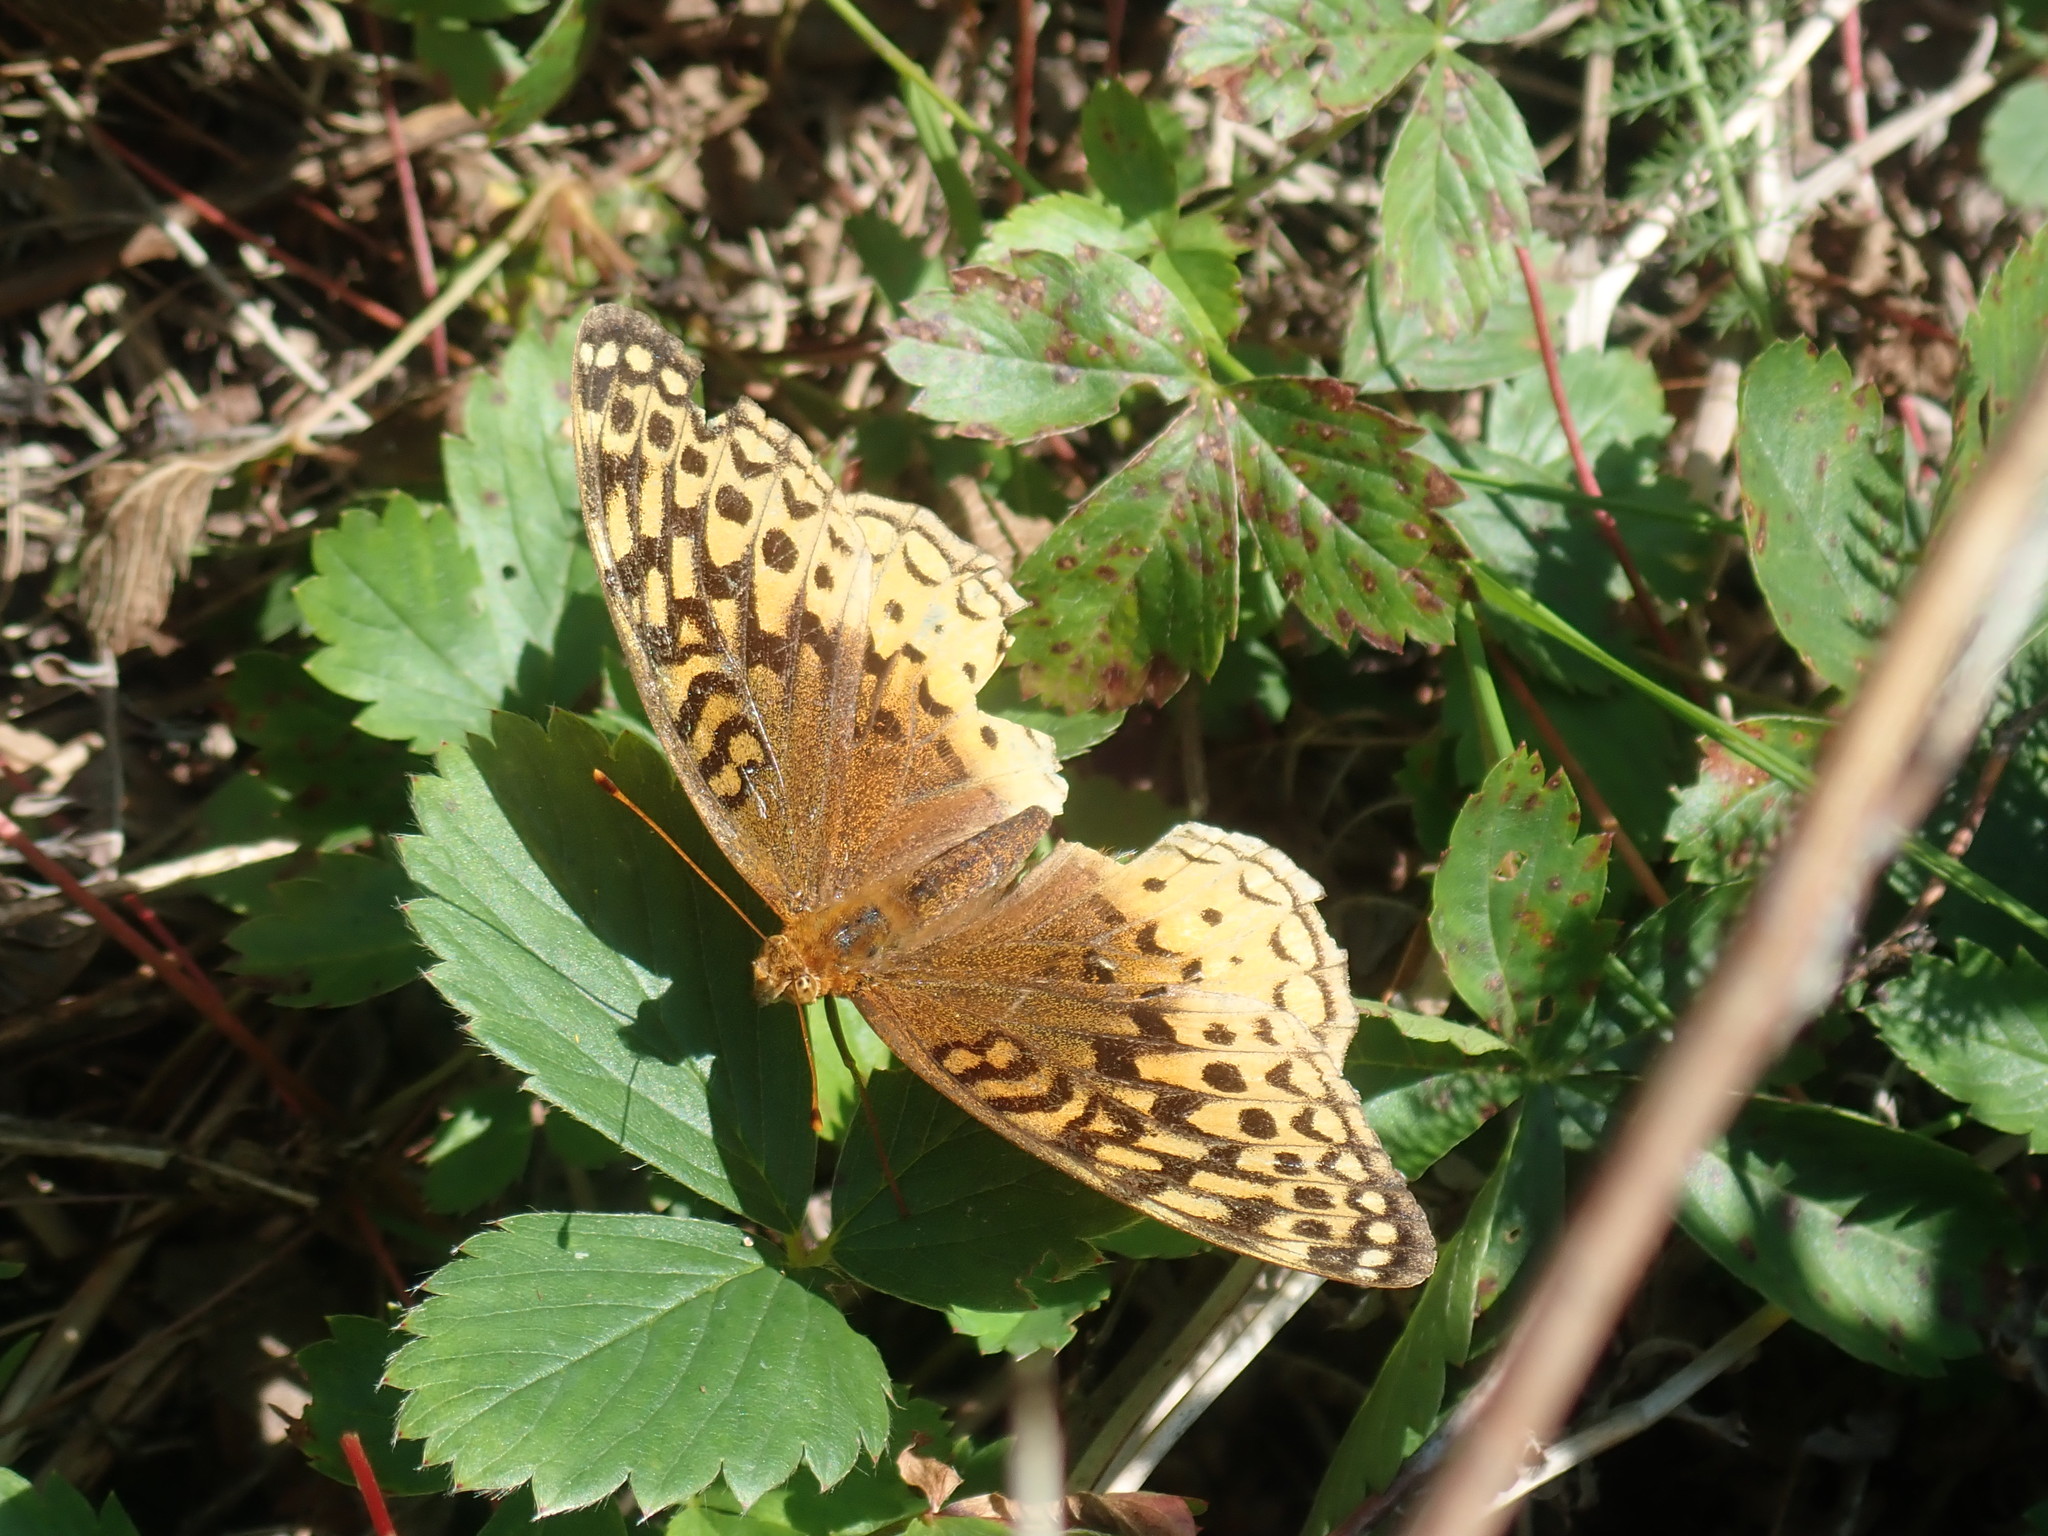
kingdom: Animalia
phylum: Arthropoda
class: Insecta
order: Lepidoptera
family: Nymphalidae
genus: Speyeria
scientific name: Speyeria cybele
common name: Great spangled fritillary
